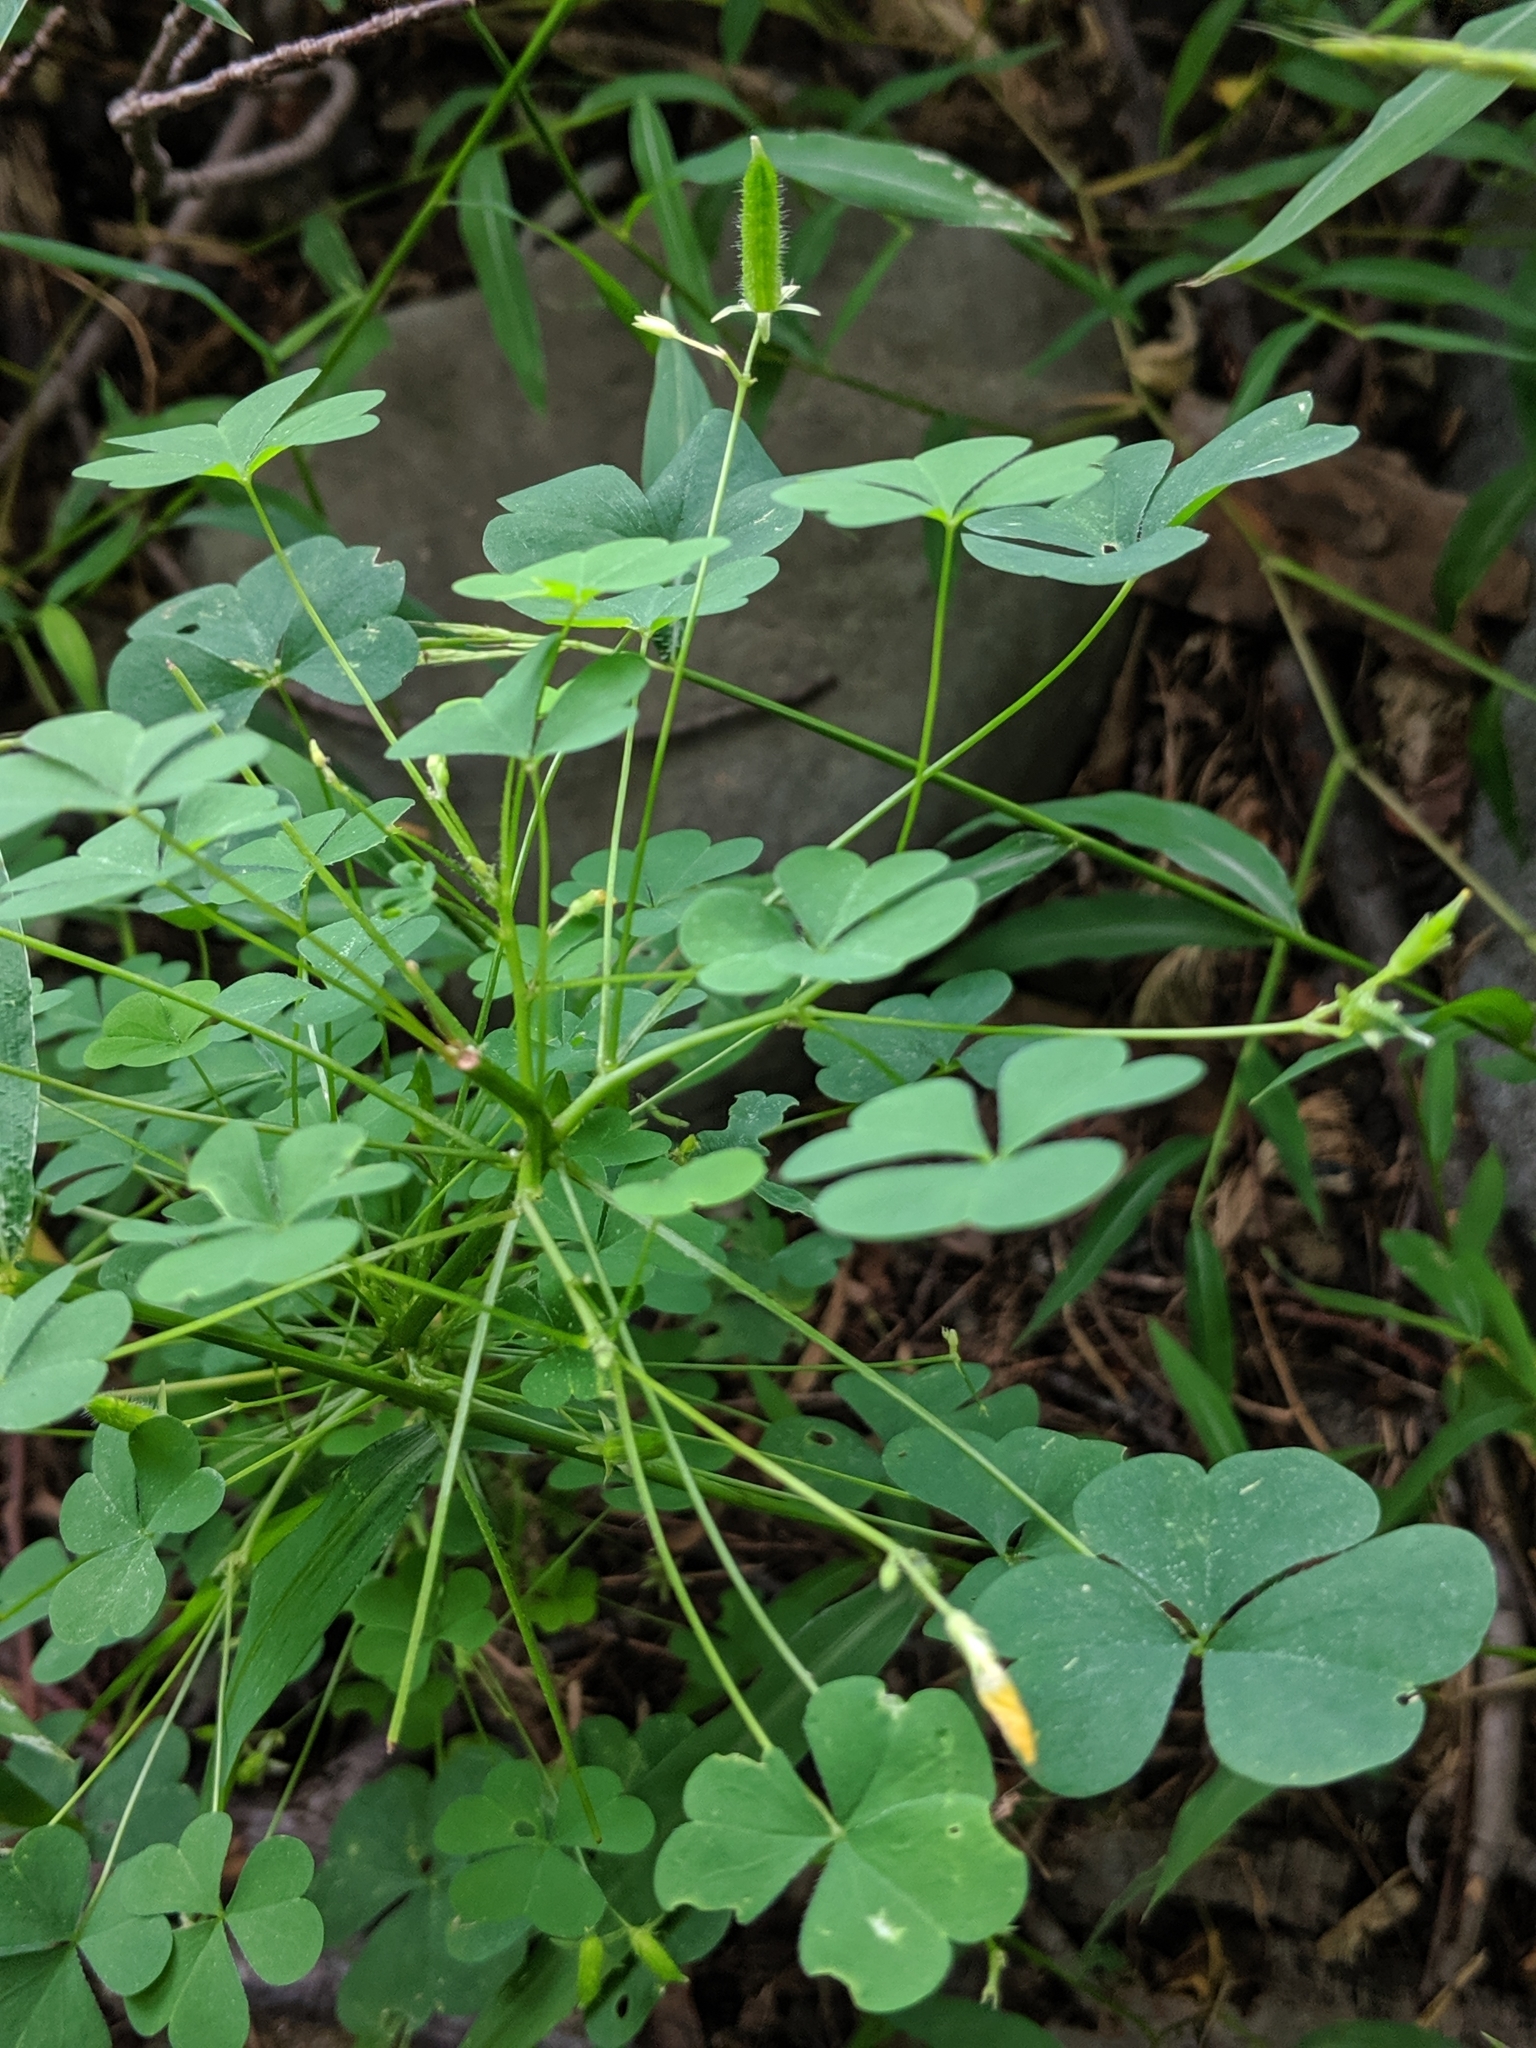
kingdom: Plantae
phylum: Tracheophyta
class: Magnoliopsida
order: Oxalidales
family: Oxalidaceae
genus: Oxalis
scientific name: Oxalis stricta
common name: Upright yellow-sorrel
